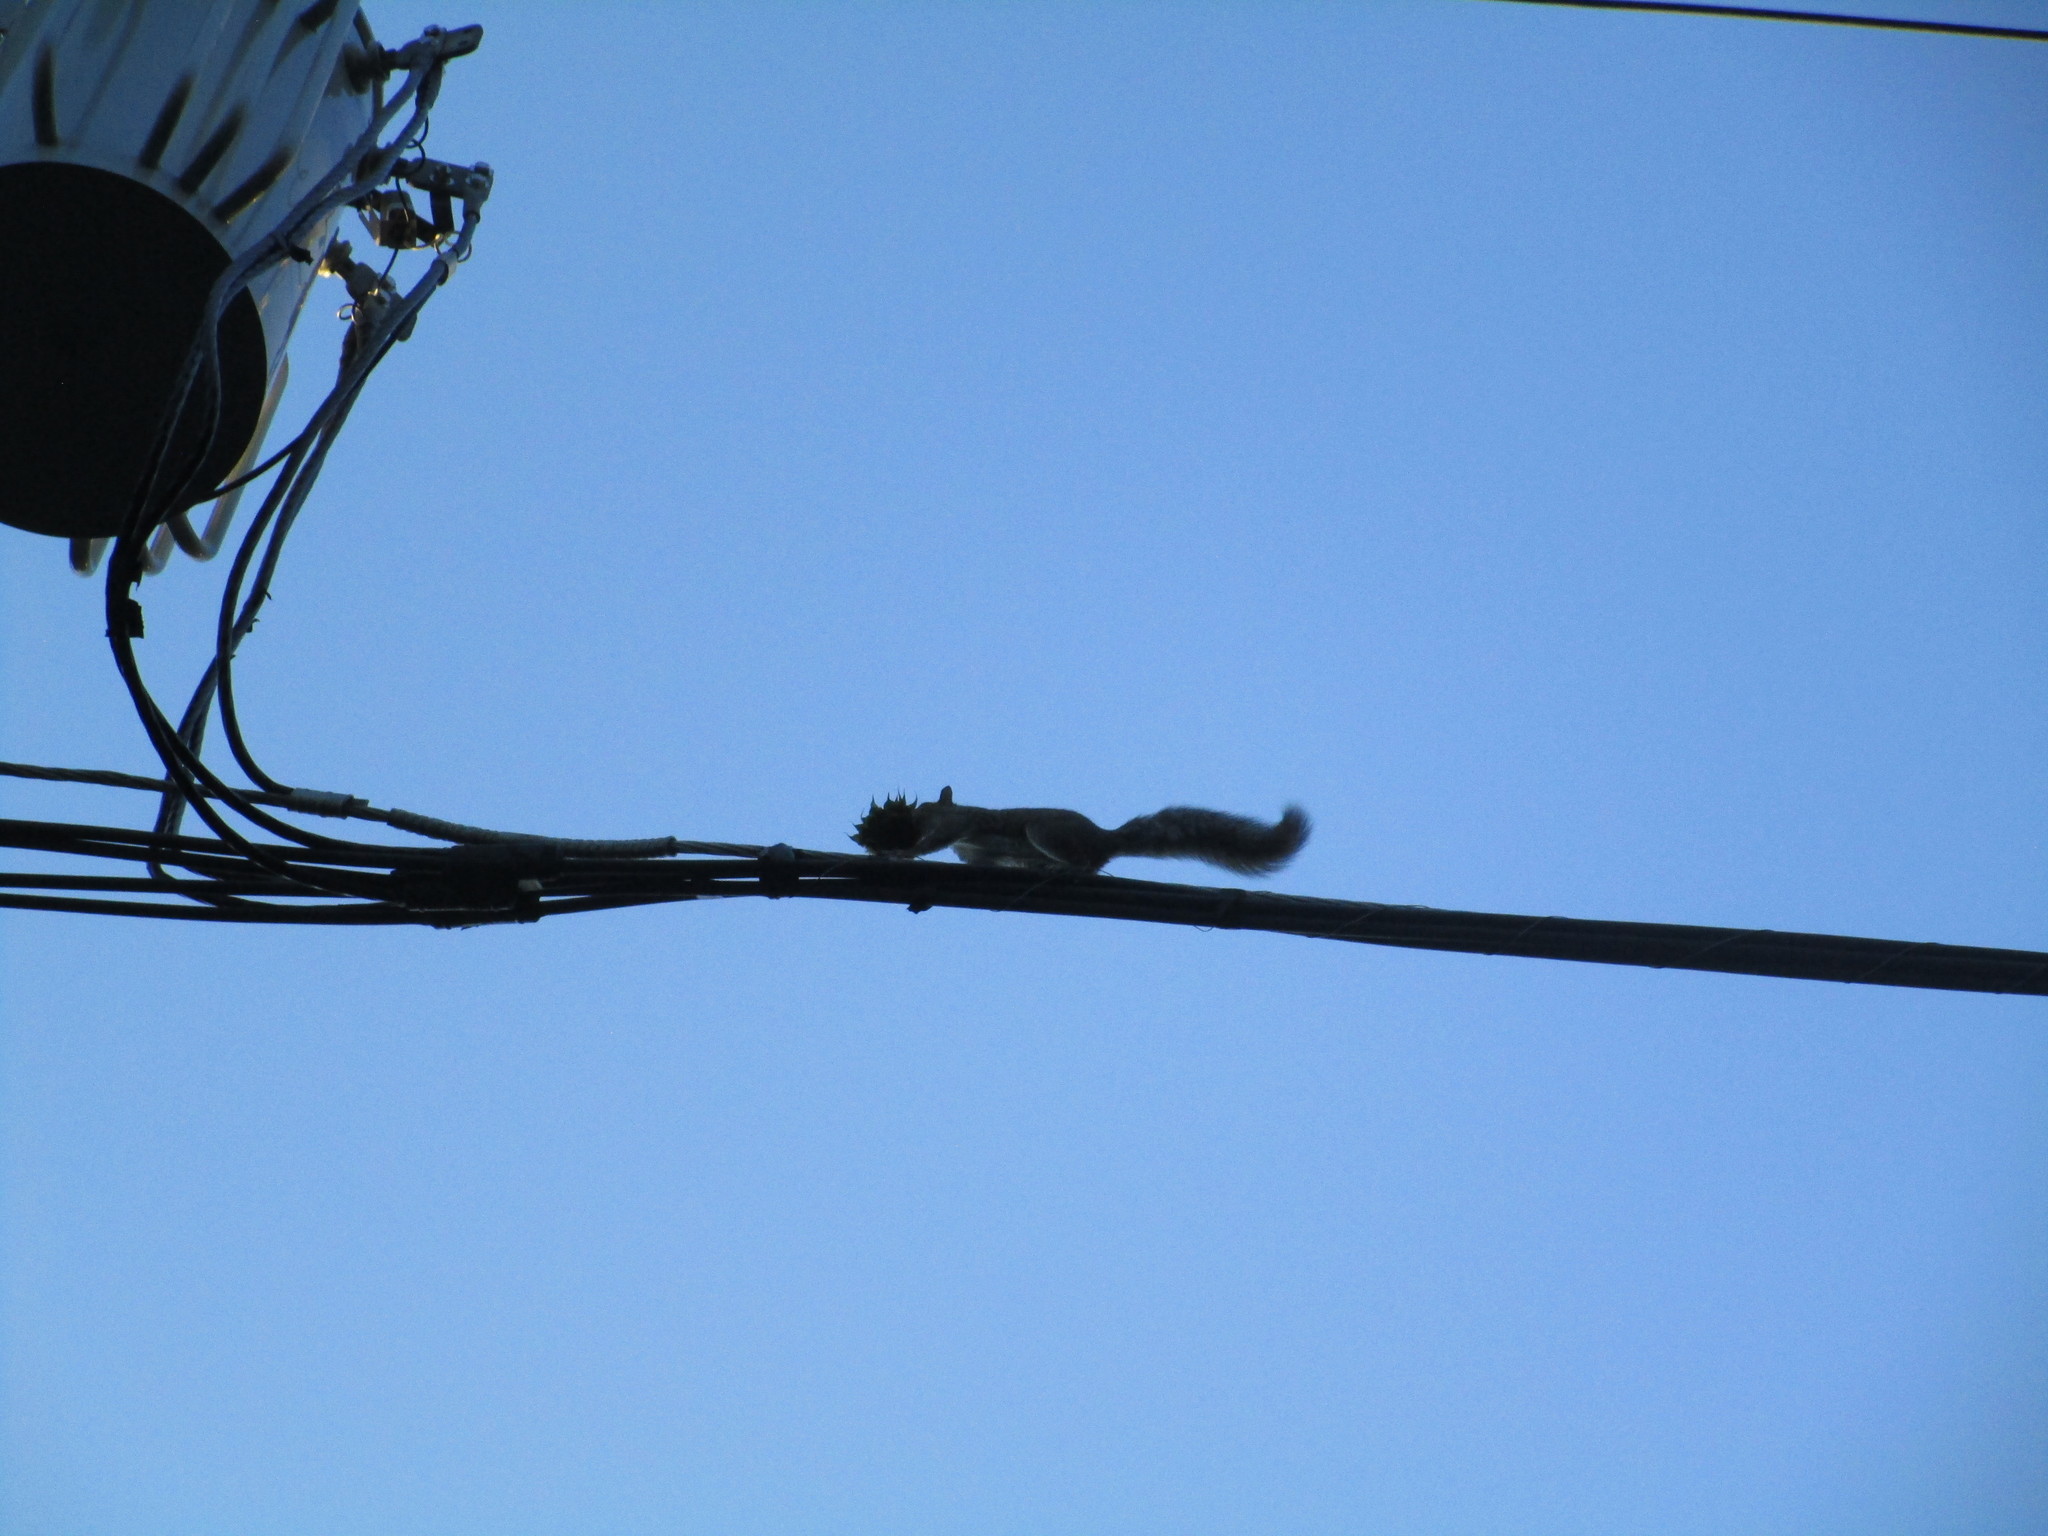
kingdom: Animalia
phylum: Chordata
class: Mammalia
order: Rodentia
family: Sciuridae
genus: Sciurus
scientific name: Sciurus carolinensis
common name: Eastern gray squirrel
